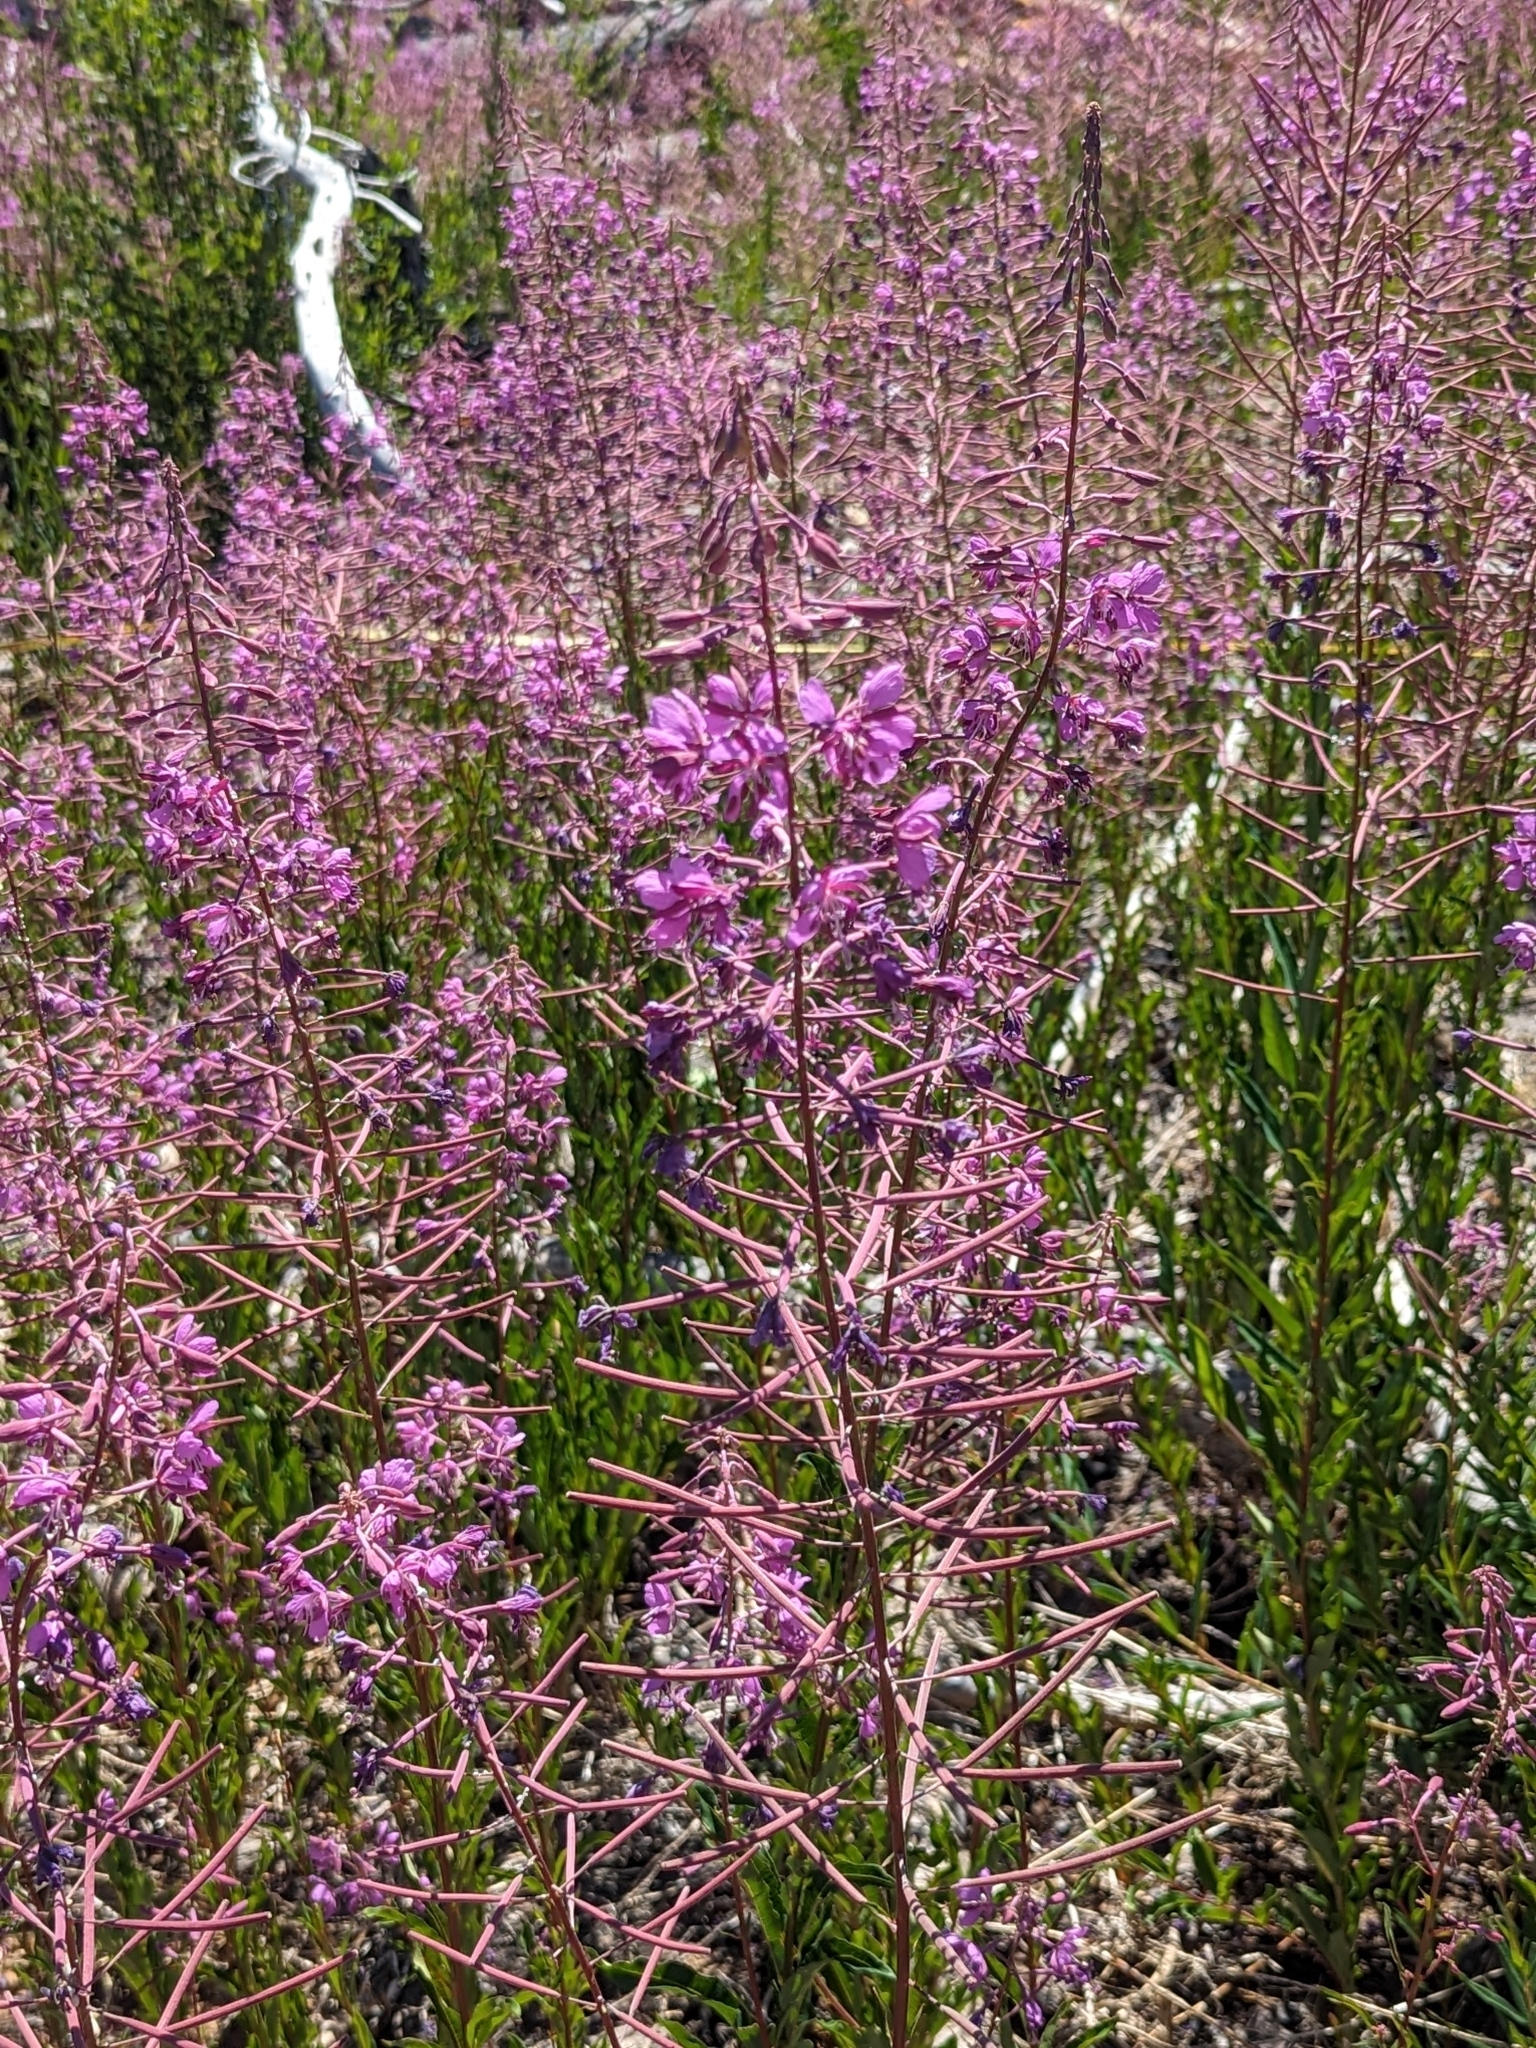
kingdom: Plantae
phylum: Tracheophyta
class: Magnoliopsida
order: Myrtales
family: Onagraceae
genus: Chamaenerion
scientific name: Chamaenerion angustifolium
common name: Fireweed
